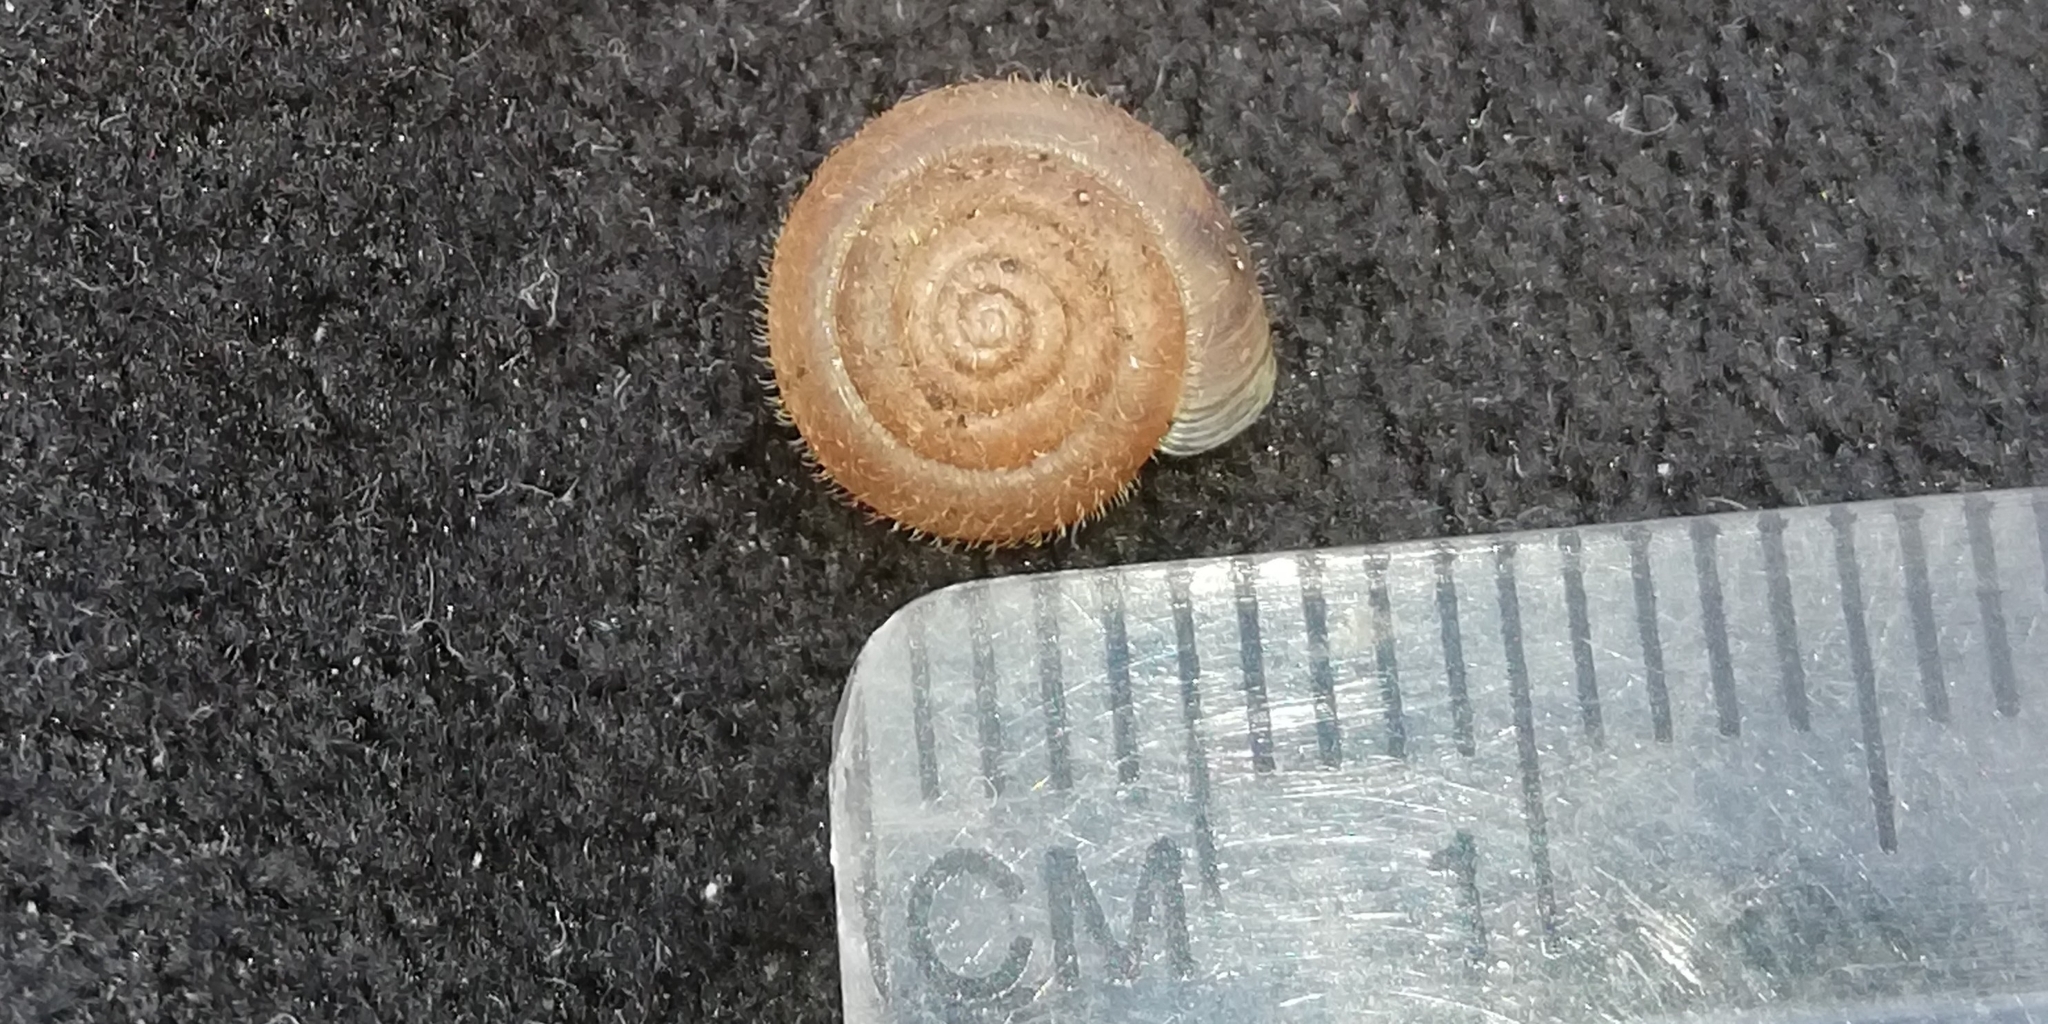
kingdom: Animalia
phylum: Mollusca
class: Gastropoda
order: Stylommatophora
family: Hygromiidae
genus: Trochulus
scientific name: Trochulus hispidus
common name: Hairy snail
